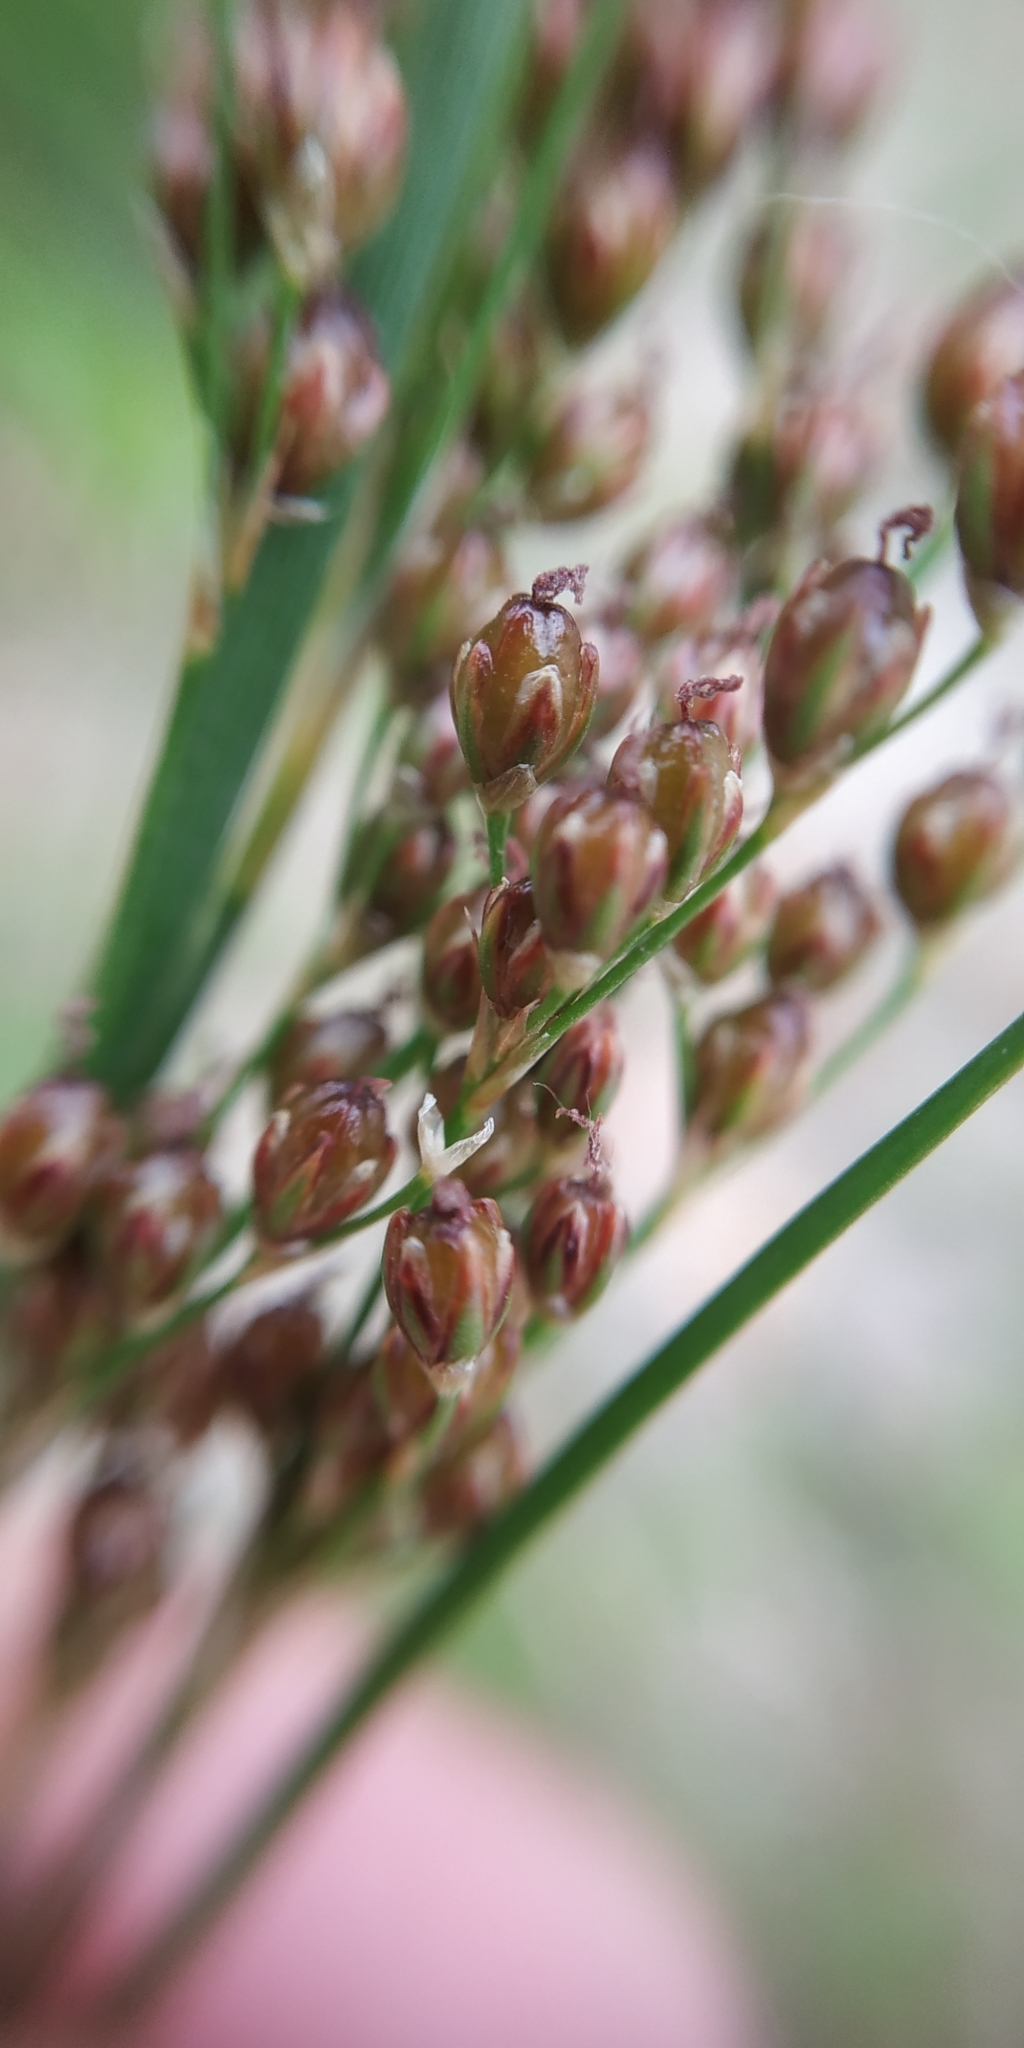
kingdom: Plantae
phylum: Tracheophyta
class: Liliopsida
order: Poales
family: Juncaceae
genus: Juncus
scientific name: Juncus compressus
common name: Round-fruited rush
